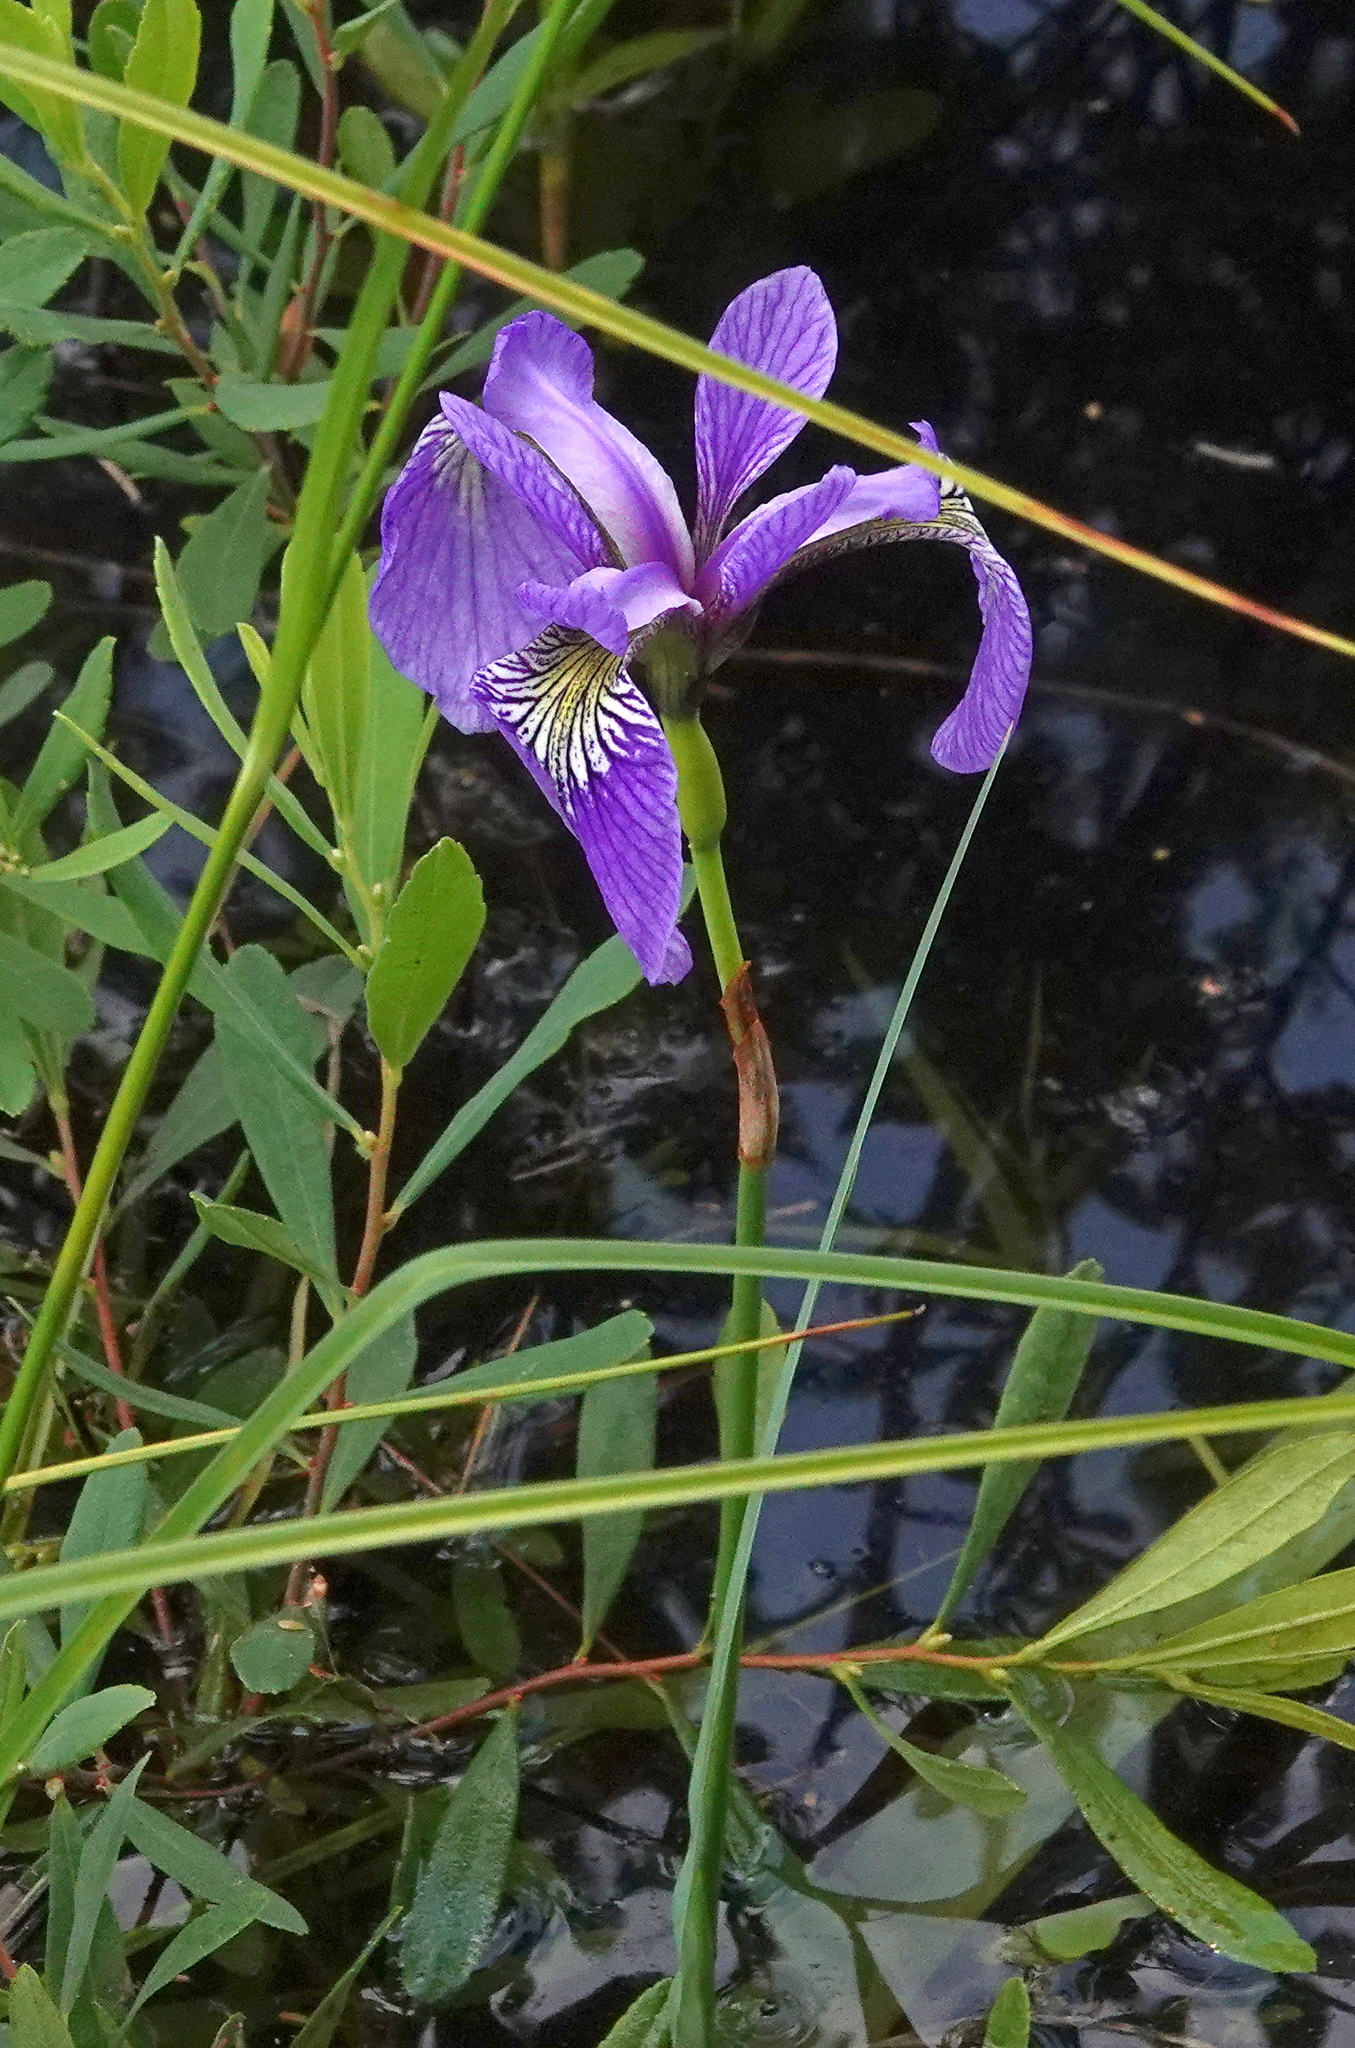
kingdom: Plantae
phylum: Tracheophyta
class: Liliopsida
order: Asparagales
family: Iridaceae
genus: Iris
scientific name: Iris versicolor
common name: Purple iris
